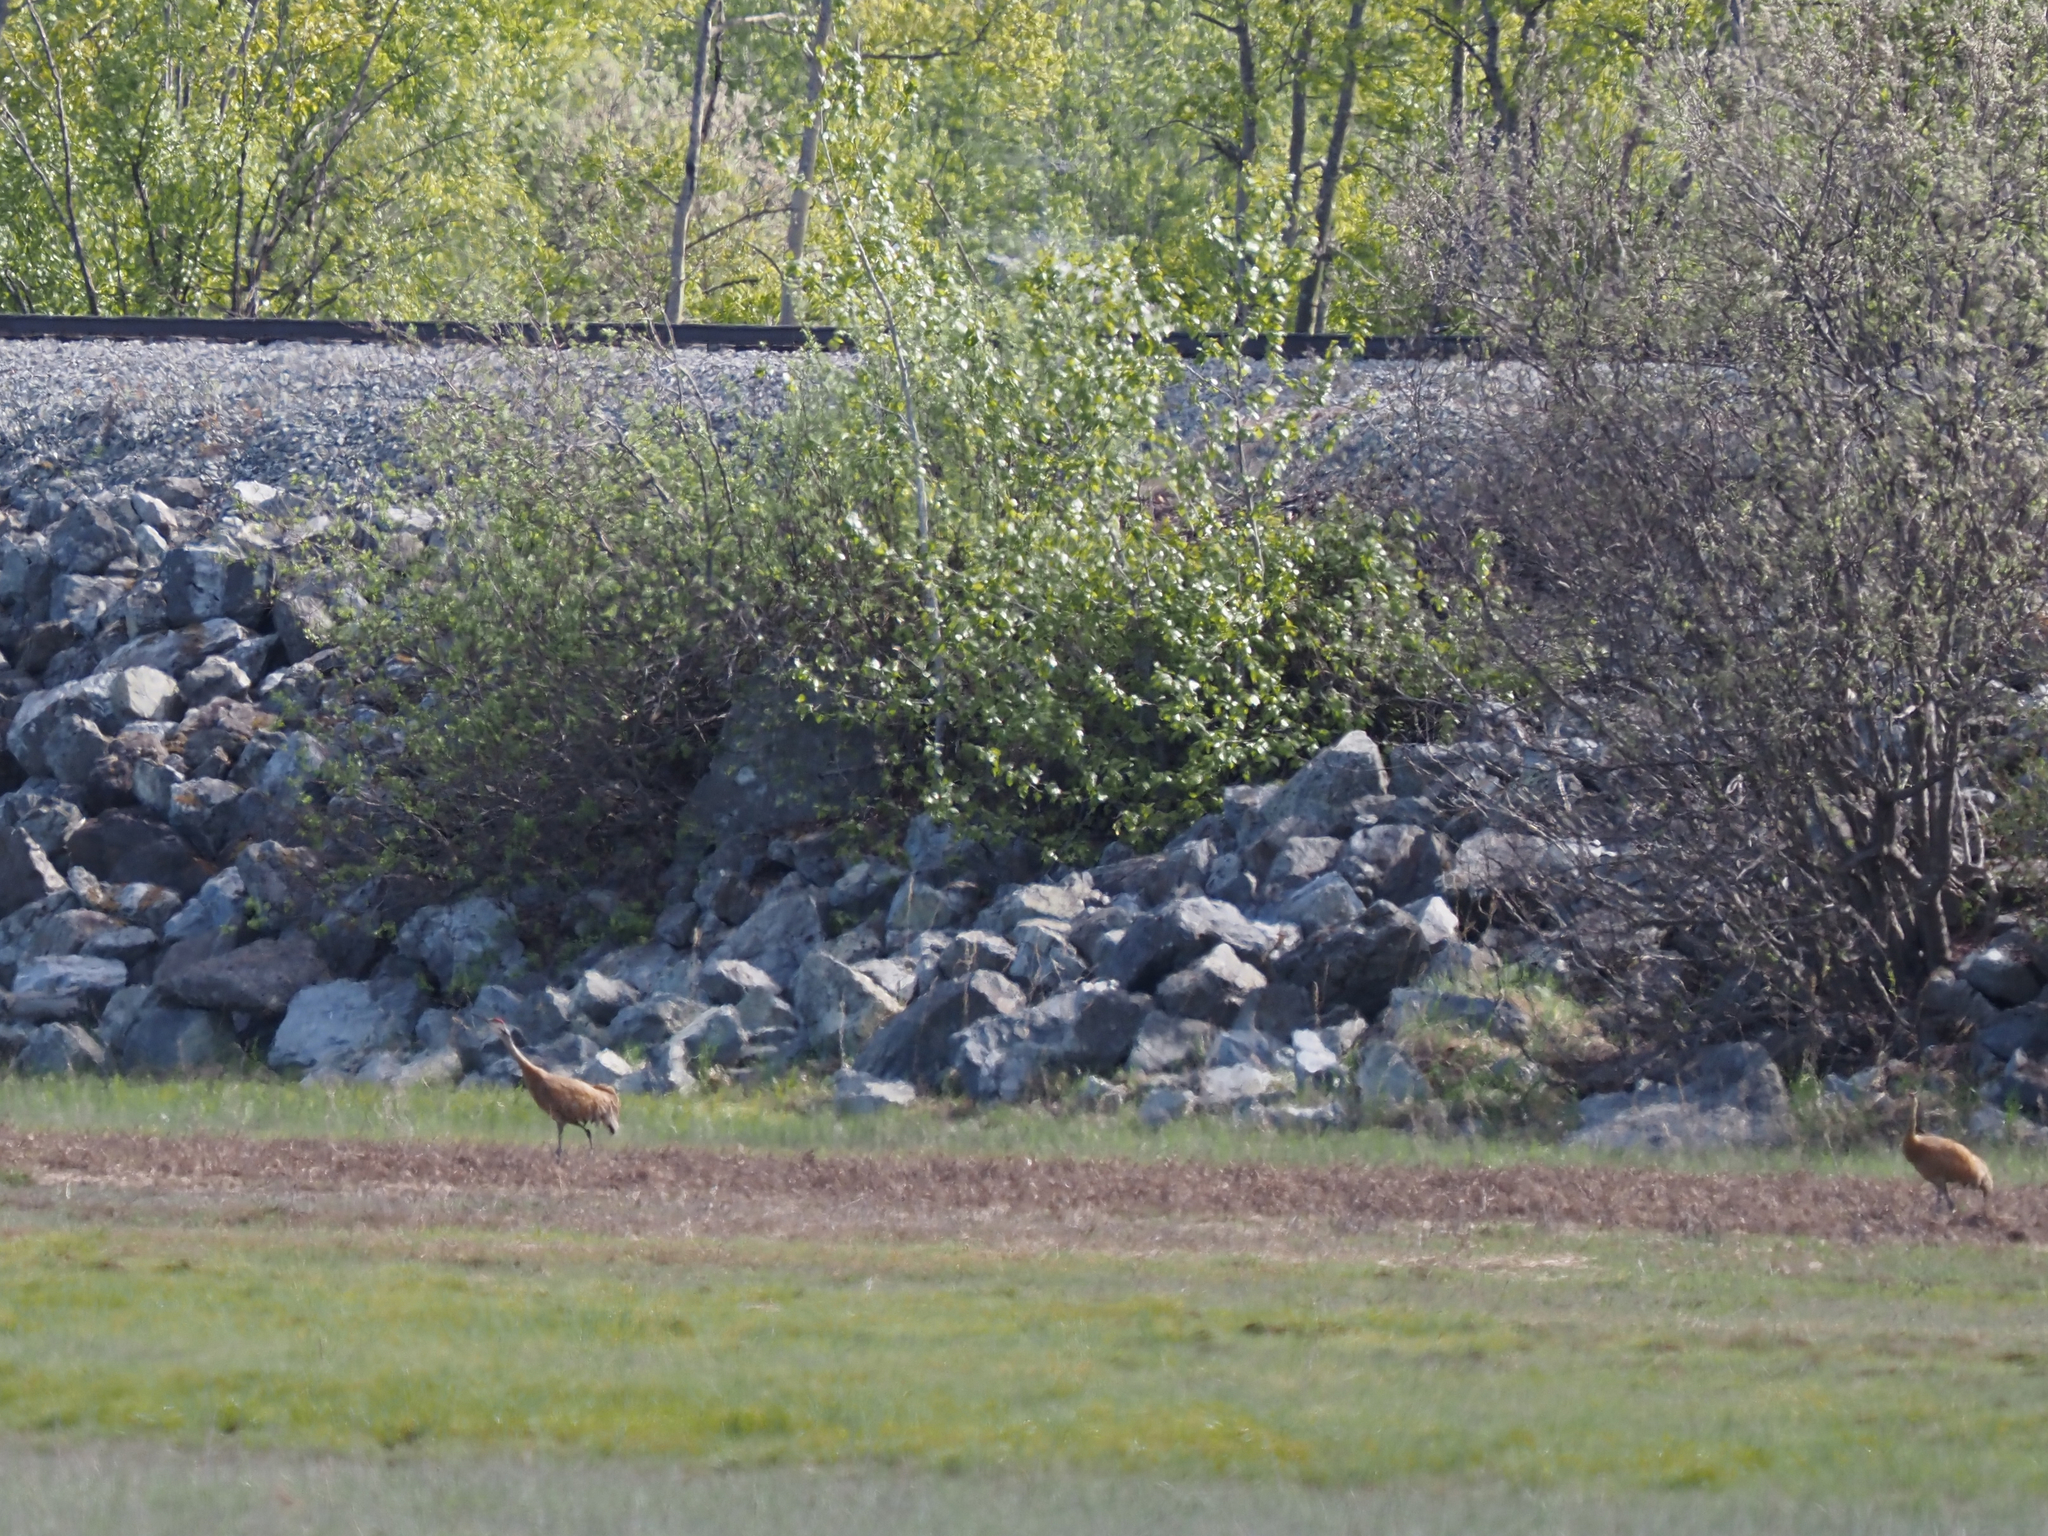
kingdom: Animalia
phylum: Chordata
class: Aves
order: Gruiformes
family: Gruidae
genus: Grus
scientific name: Grus canadensis
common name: Sandhill crane
